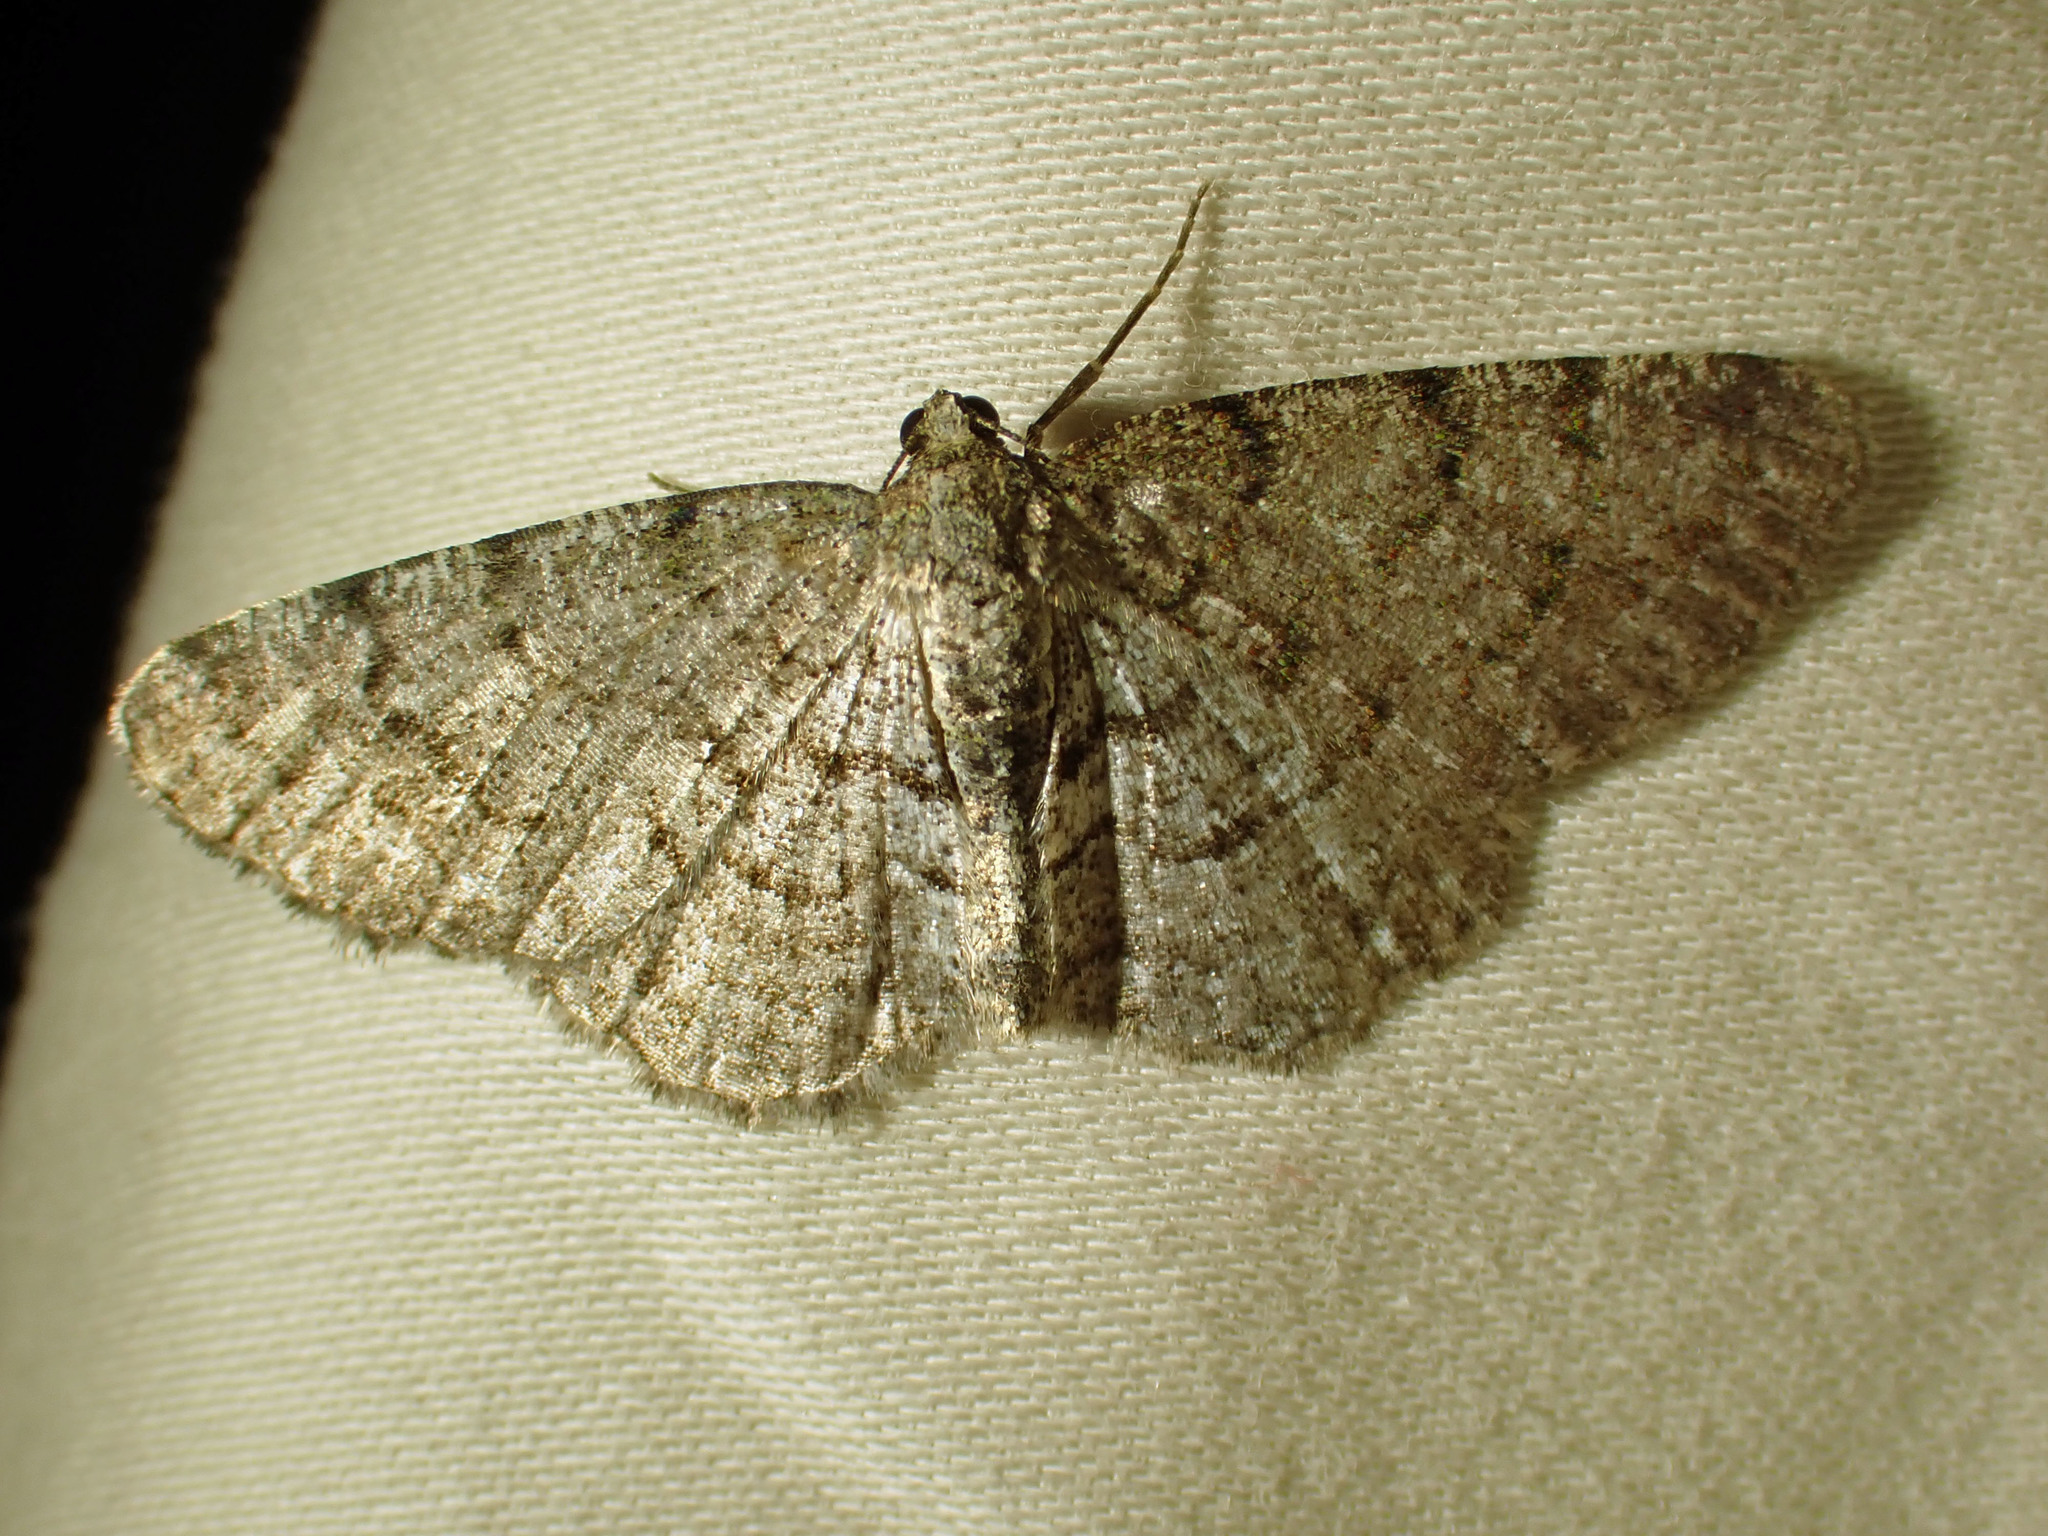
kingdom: Animalia
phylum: Arthropoda
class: Insecta
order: Lepidoptera
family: Geometridae
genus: Aethalura
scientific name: Aethalura intertexta
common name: Four-barred gray
